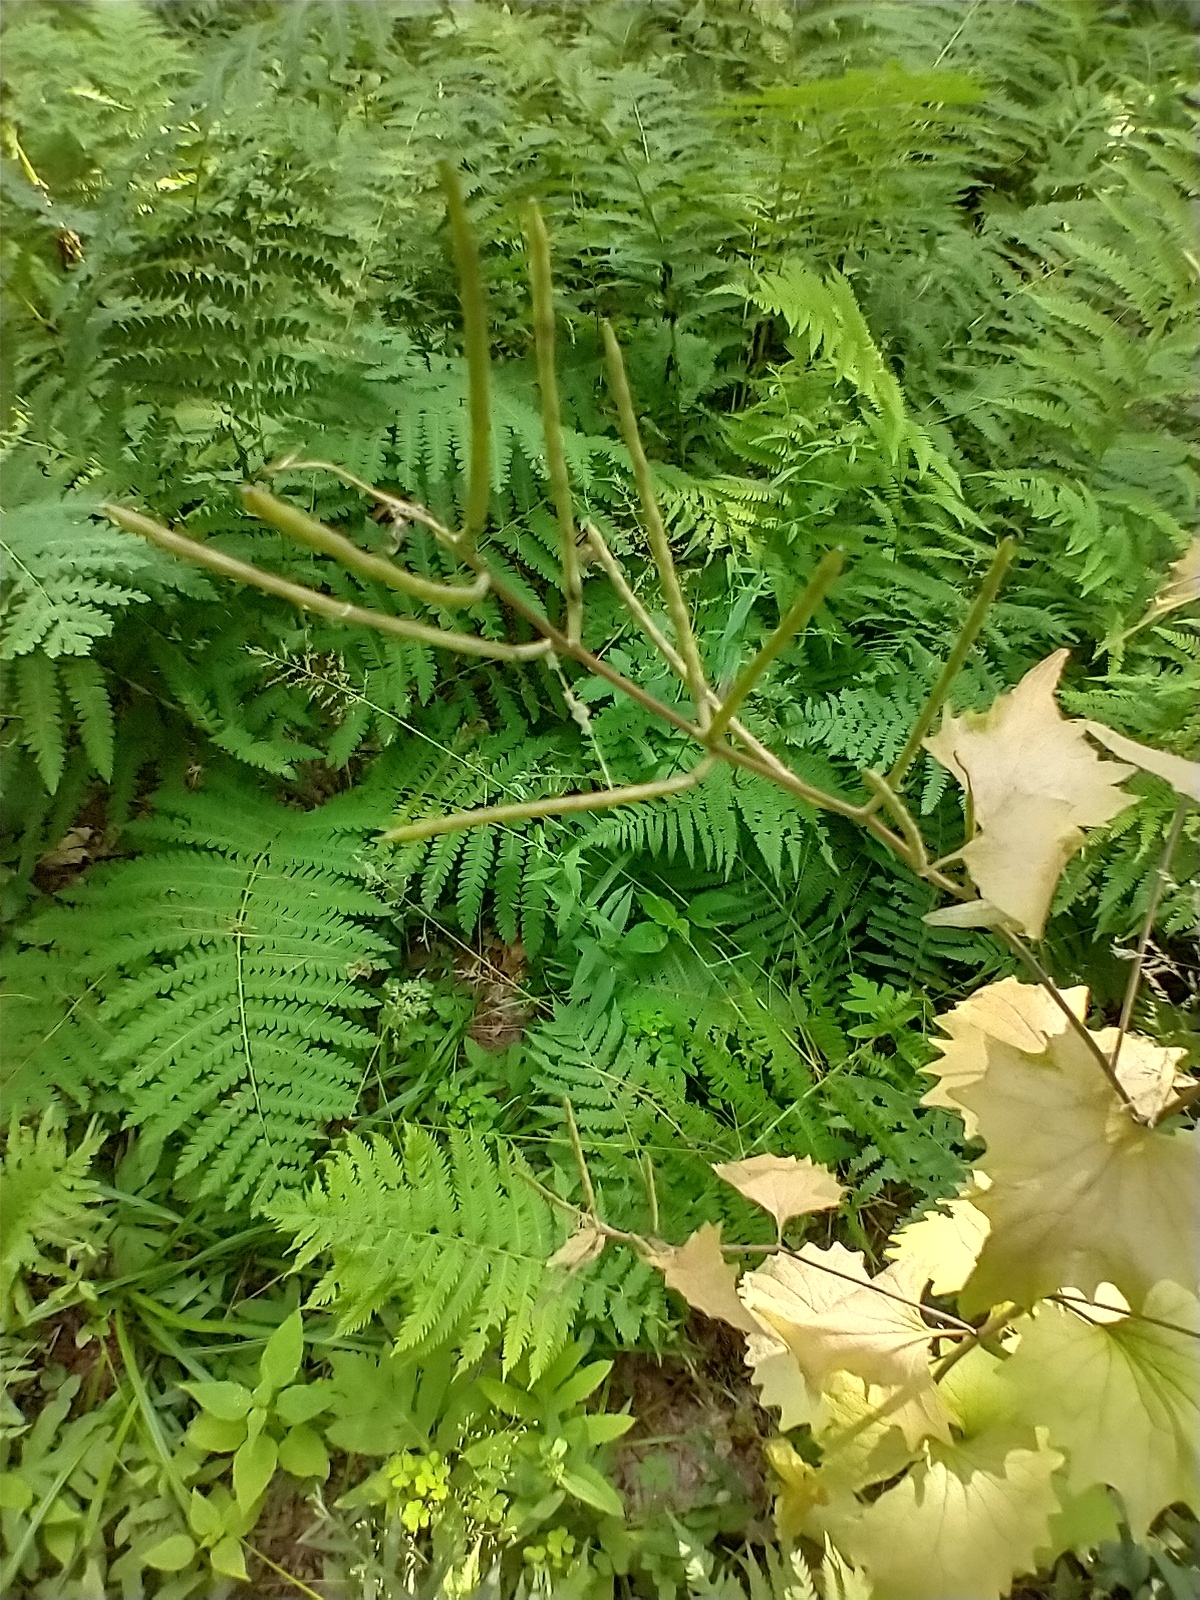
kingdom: Plantae
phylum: Tracheophyta
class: Magnoliopsida
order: Brassicales
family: Brassicaceae
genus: Alliaria
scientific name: Alliaria petiolata
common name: Garlic mustard
